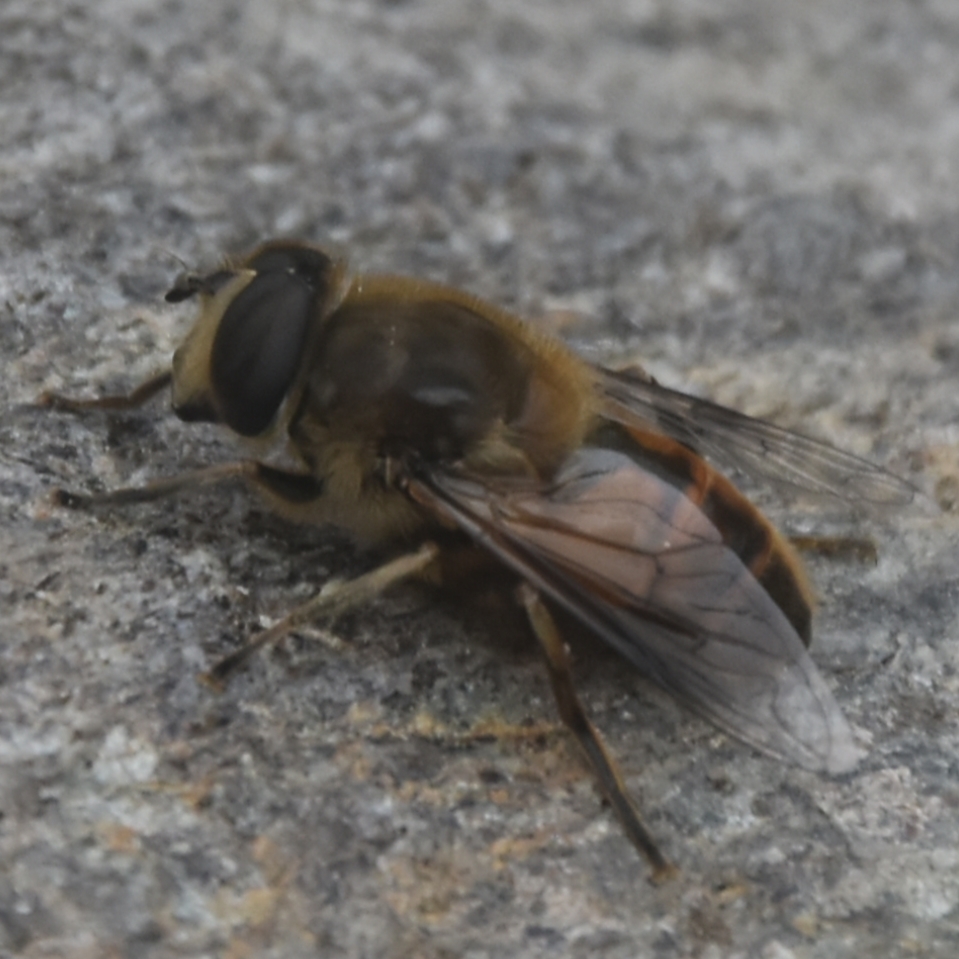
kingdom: Animalia
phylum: Arthropoda
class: Insecta
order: Diptera
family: Syrphidae
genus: Eristalis
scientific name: Eristalis tenax
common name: Drone fly
